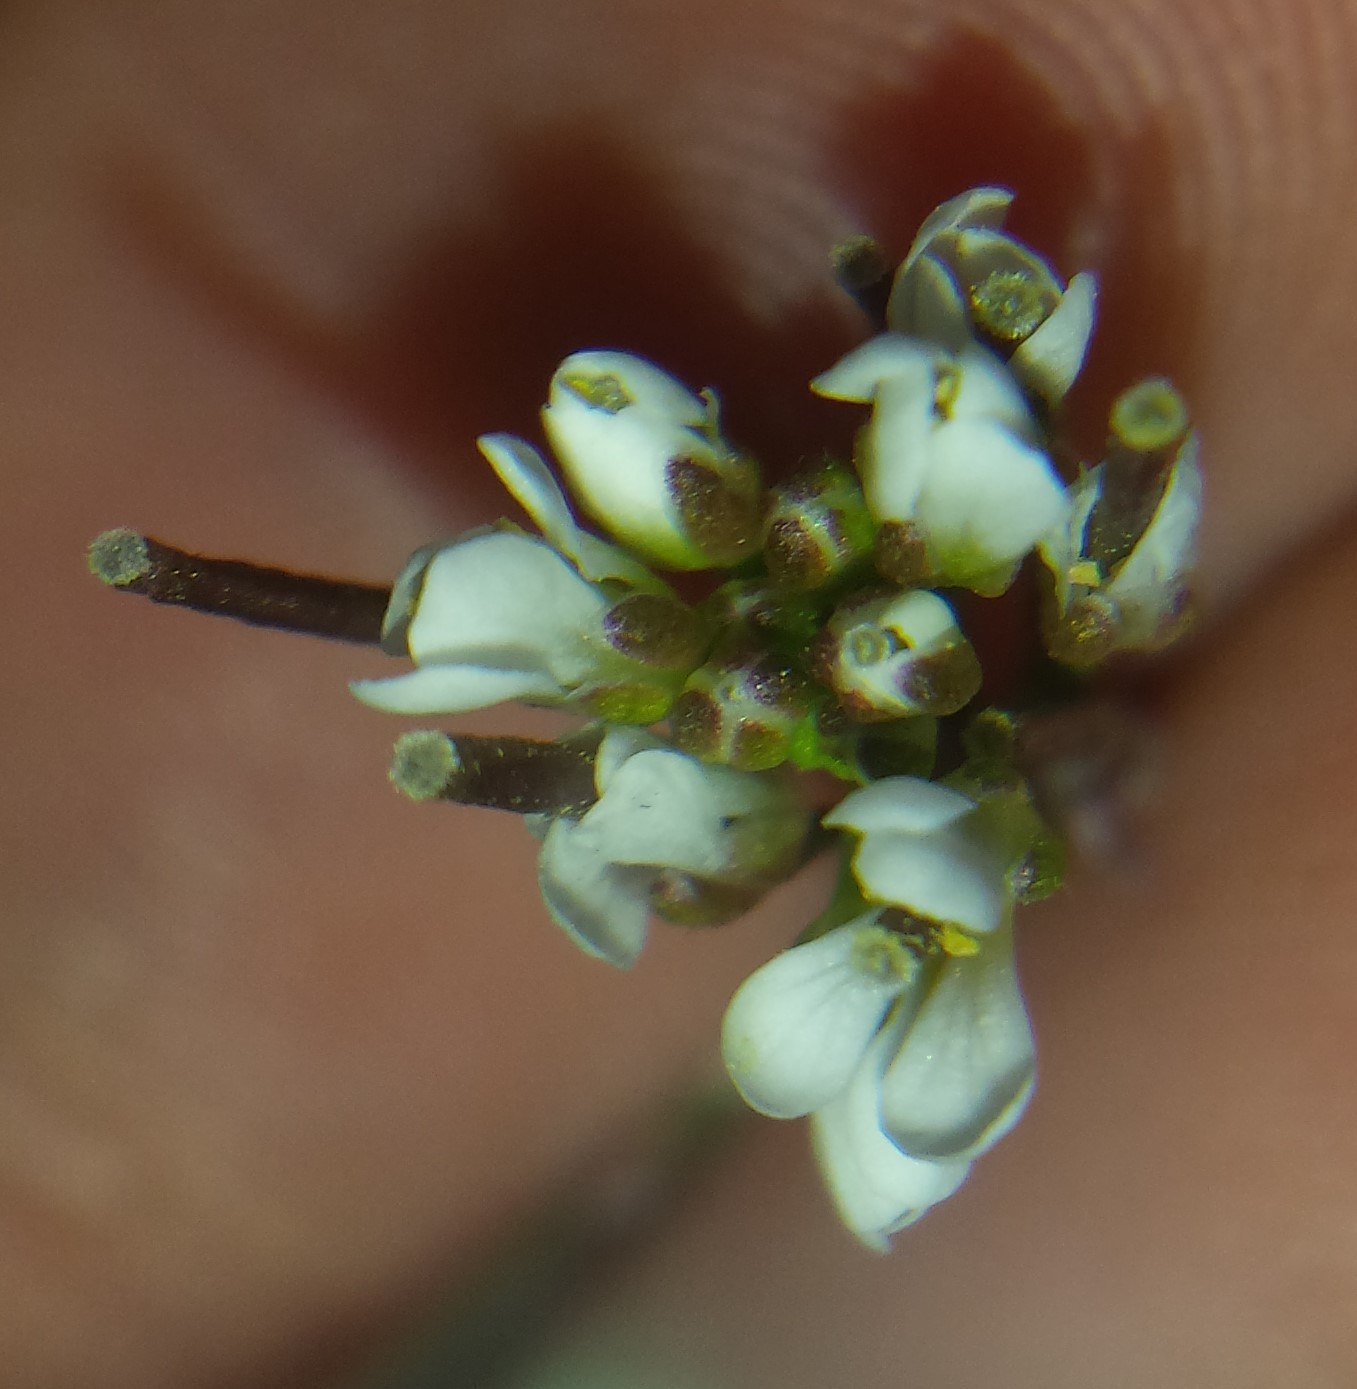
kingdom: Plantae
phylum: Tracheophyta
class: Magnoliopsida
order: Brassicales
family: Brassicaceae
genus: Cardamine
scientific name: Cardamine hirsuta
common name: Hairy bittercress
